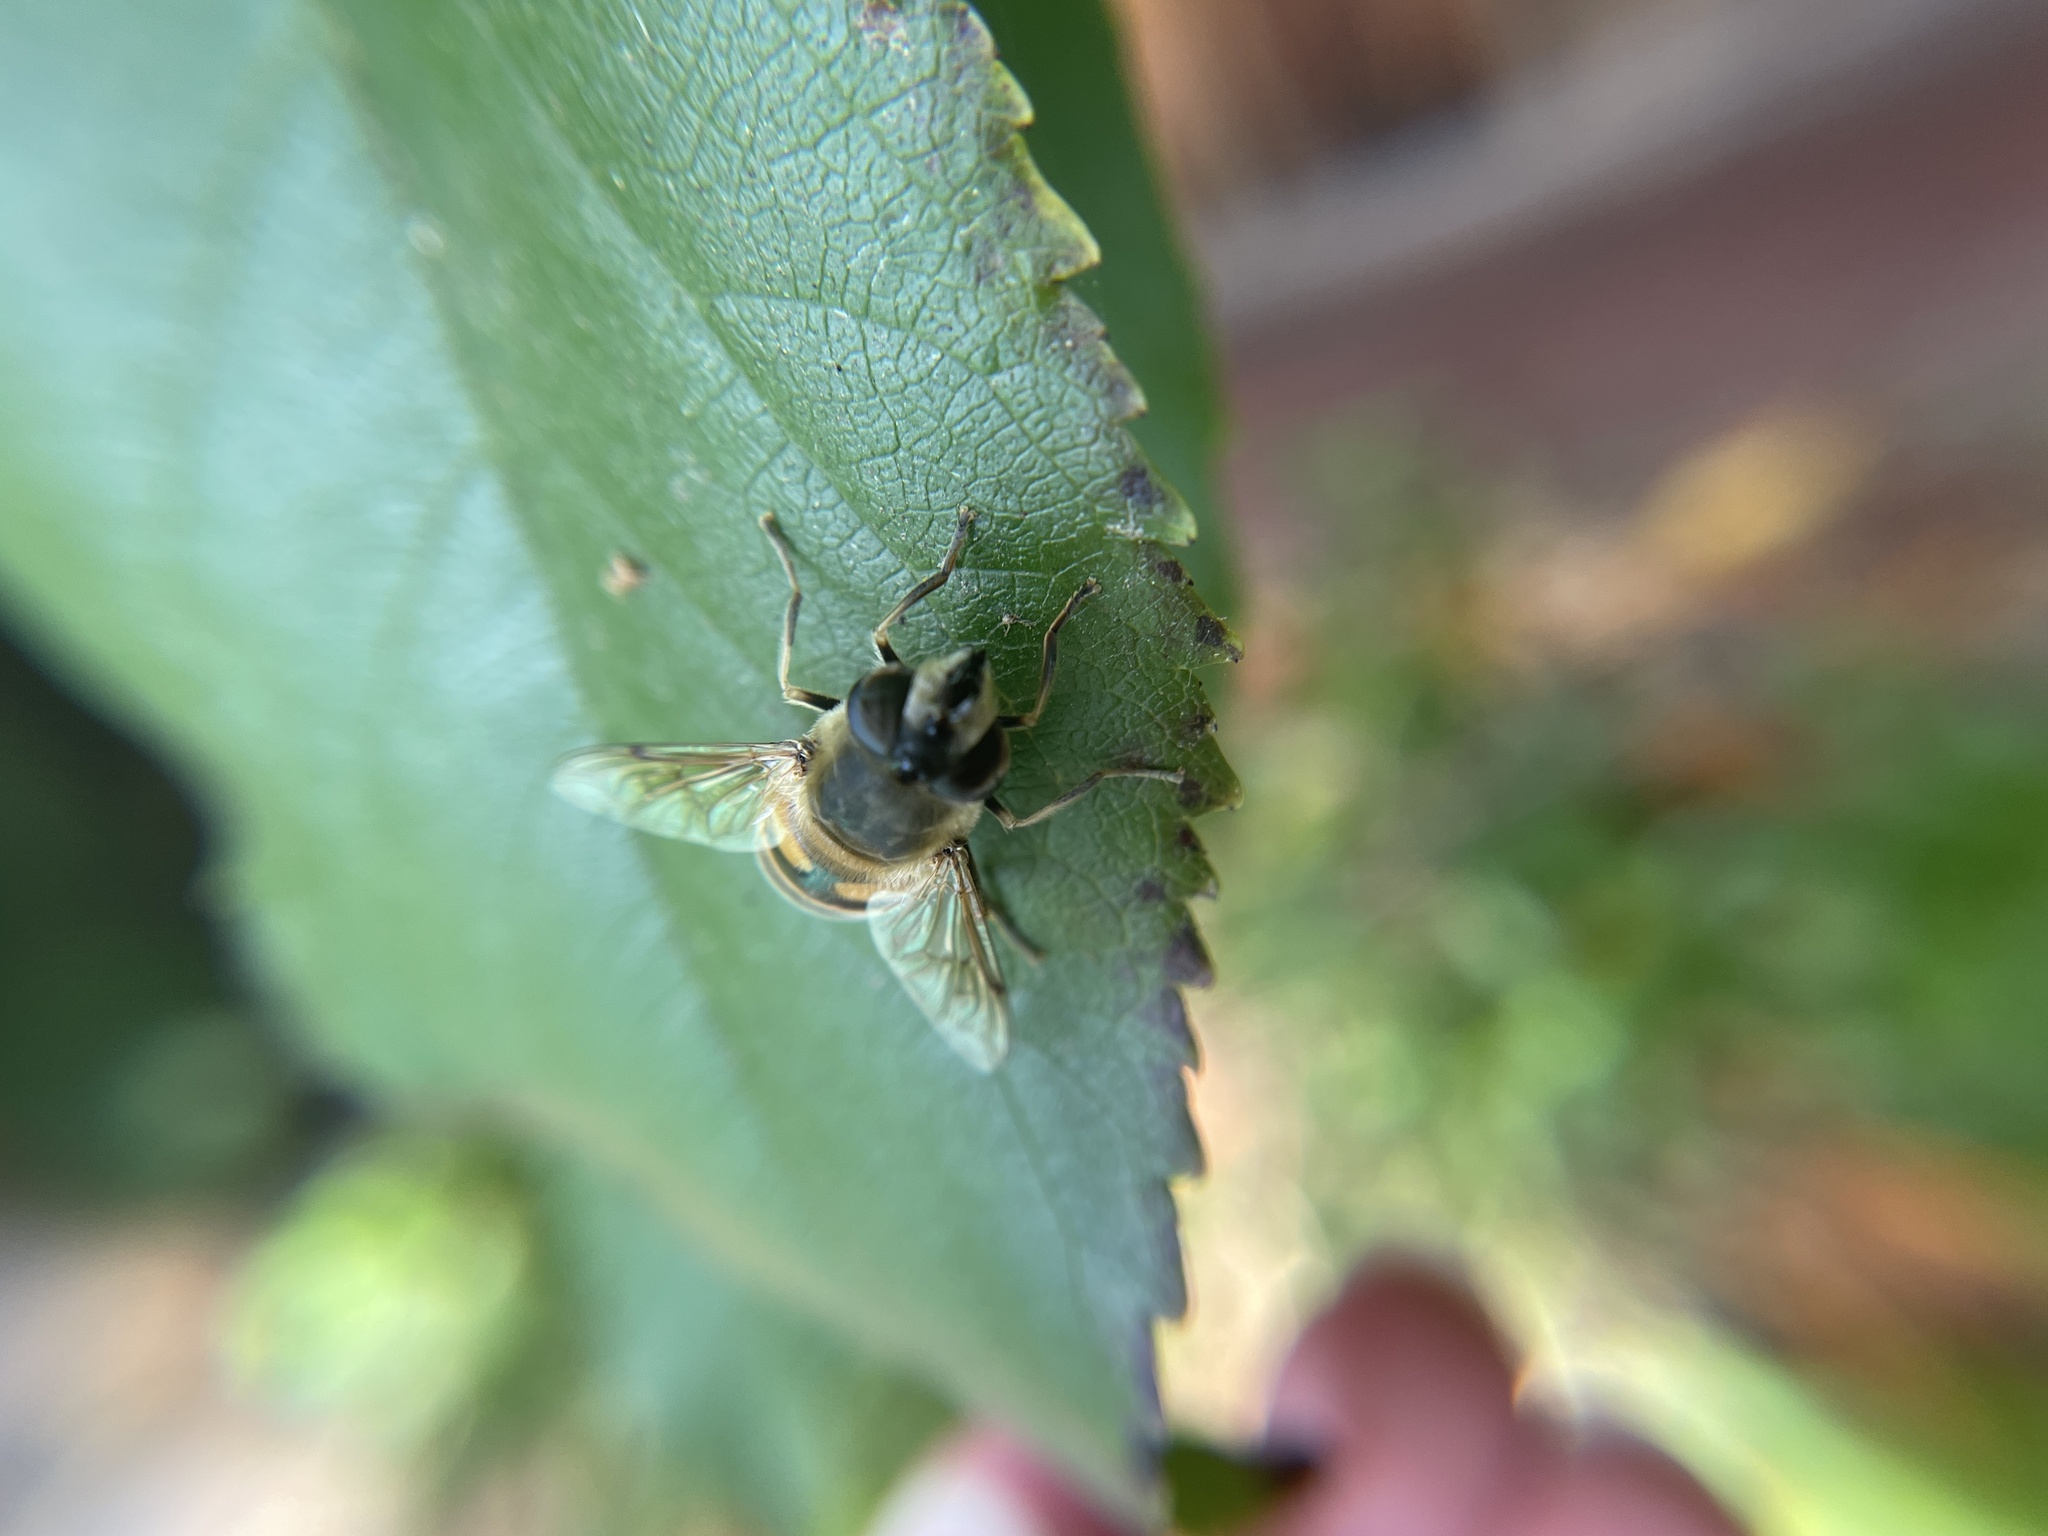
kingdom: Animalia
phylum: Arthropoda
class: Insecta
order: Diptera
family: Syrphidae
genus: Eristalis
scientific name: Eristalis tenax
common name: Drone fly
